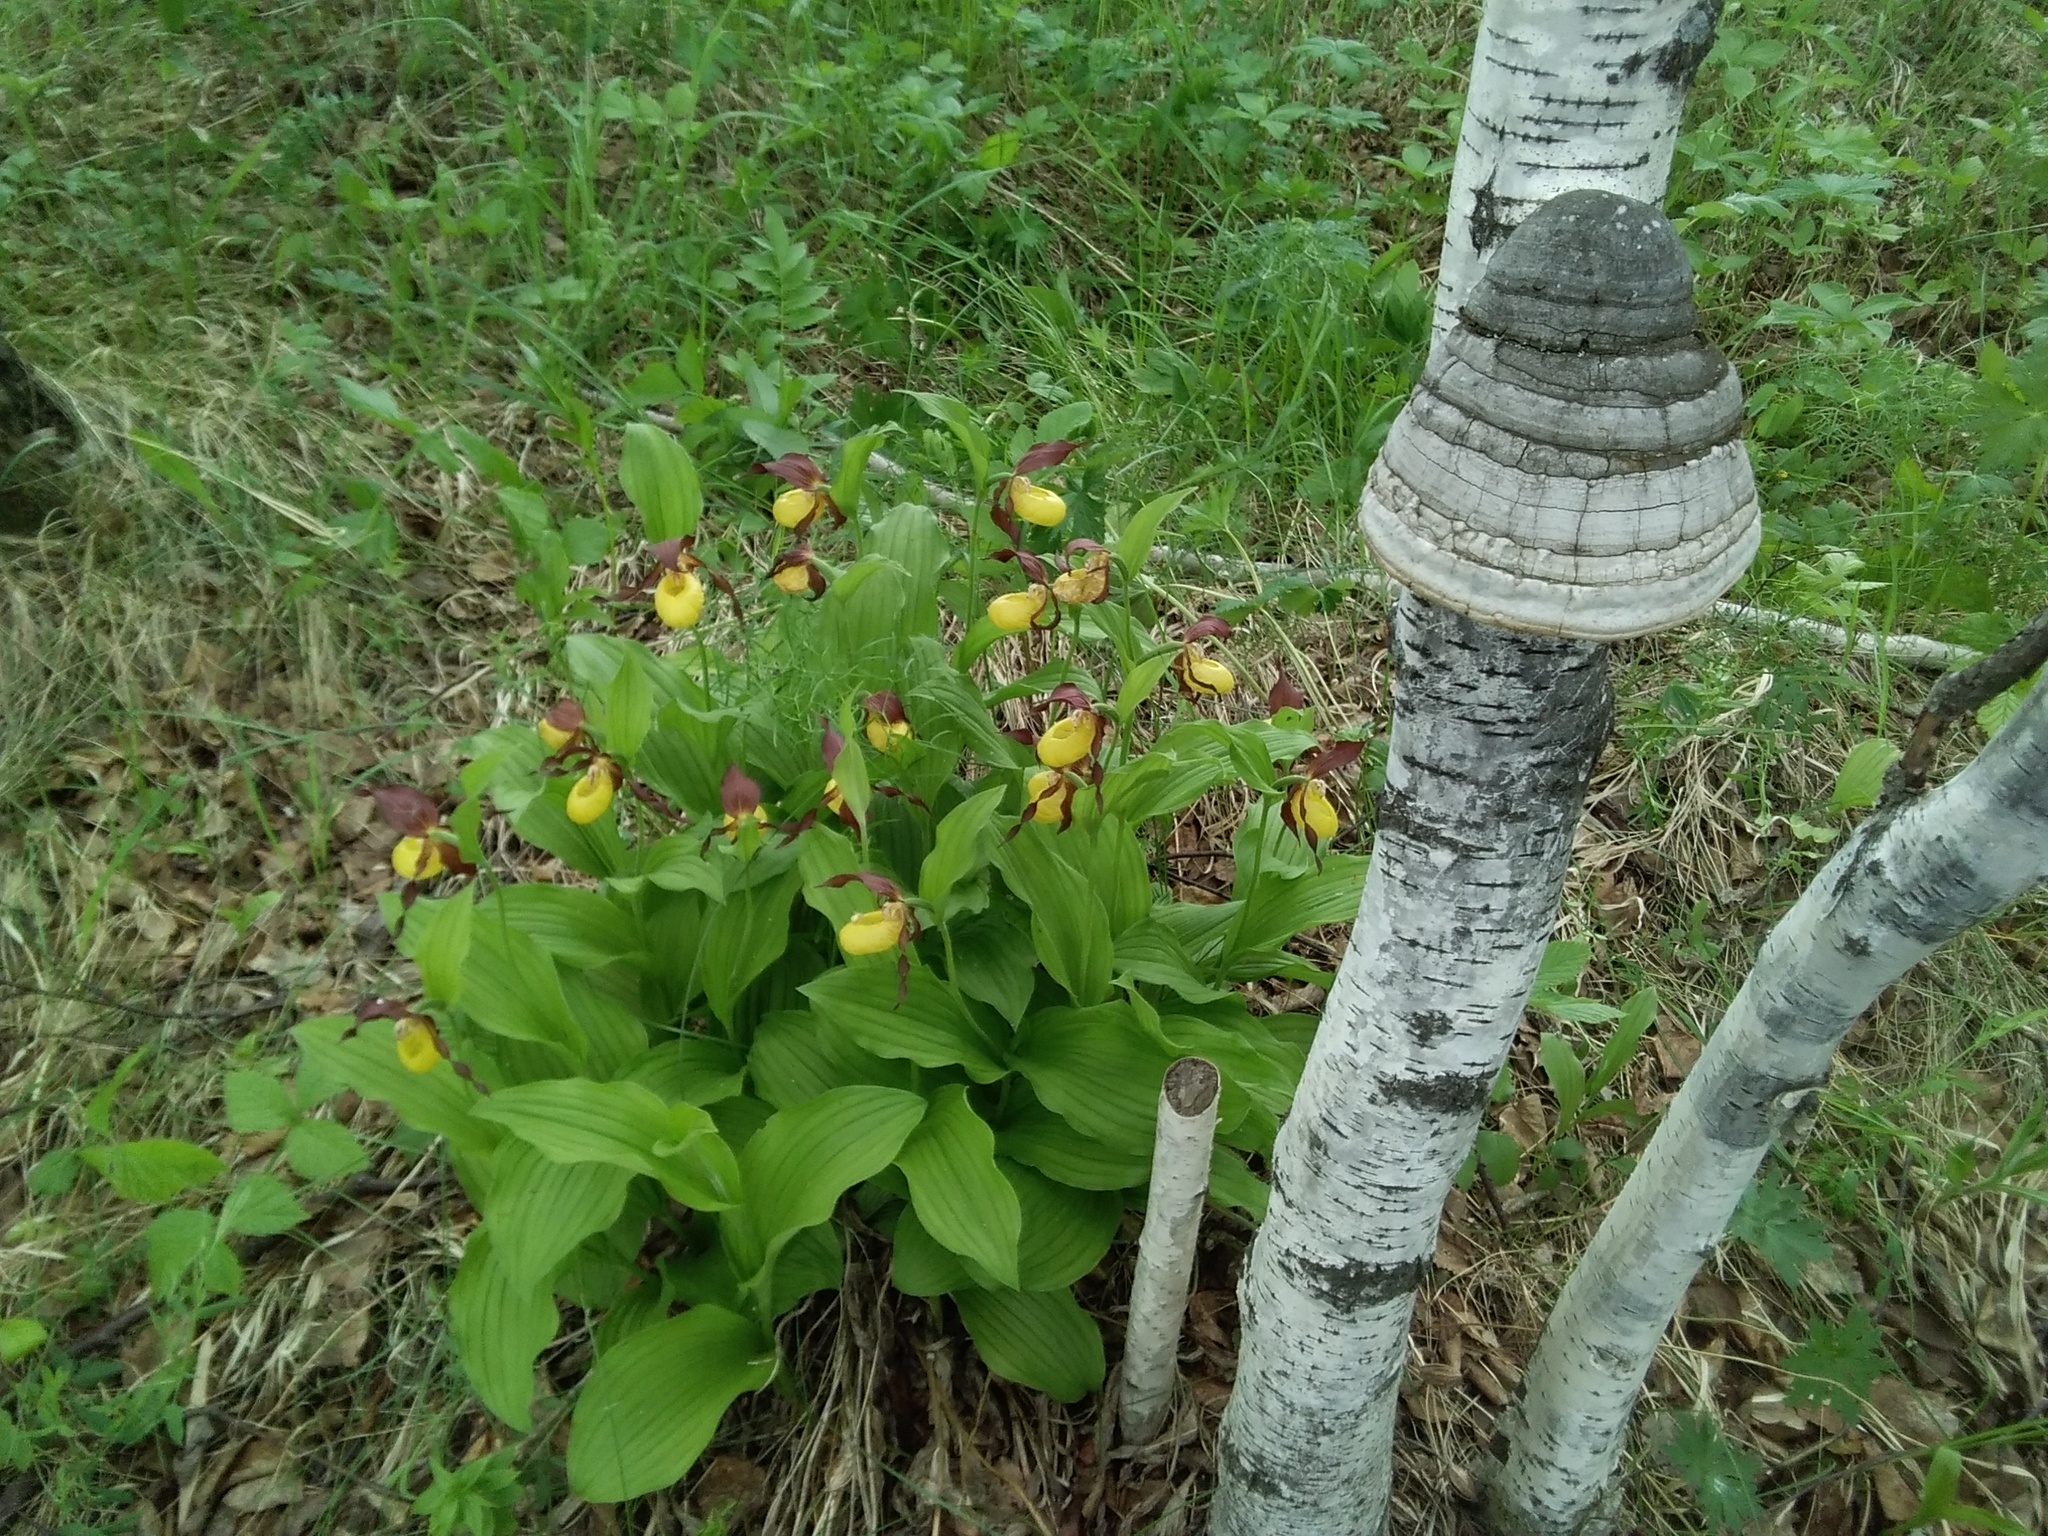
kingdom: Plantae
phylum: Tracheophyta
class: Liliopsida
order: Asparagales
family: Orchidaceae
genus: Cypripedium
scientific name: Cypripedium calceolus
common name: Lady's-slipper
